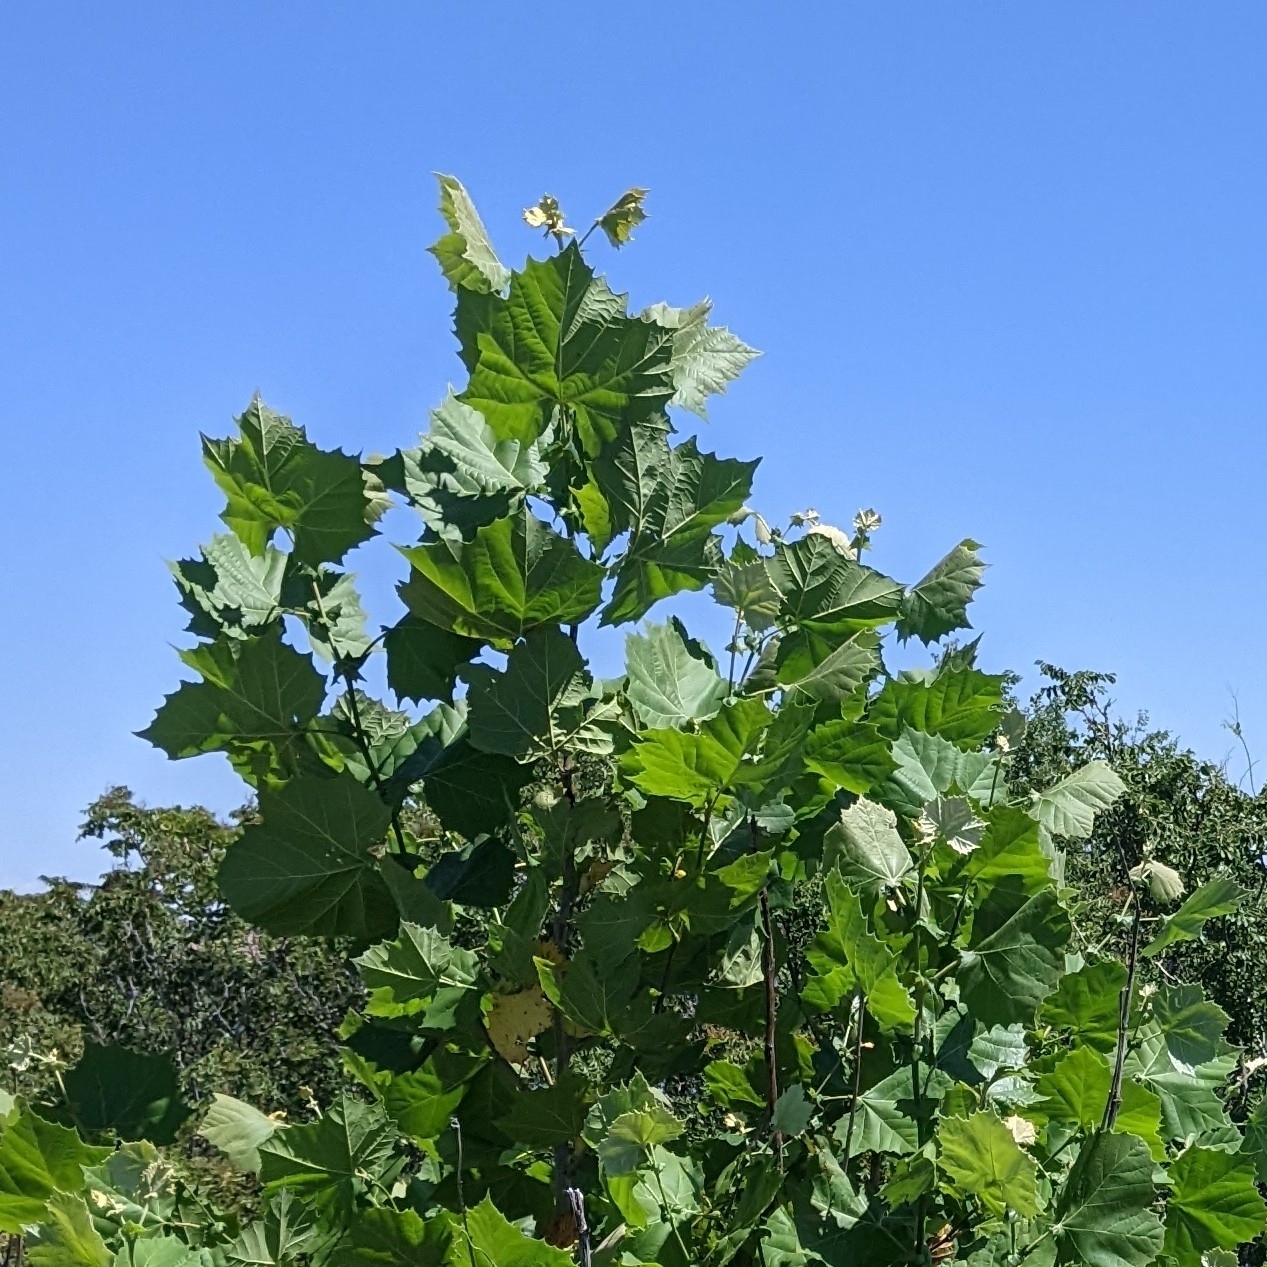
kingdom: Plantae
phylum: Tracheophyta
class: Magnoliopsida
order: Proteales
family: Platanaceae
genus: Platanus
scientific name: Platanus occidentalis
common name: American sycamore
